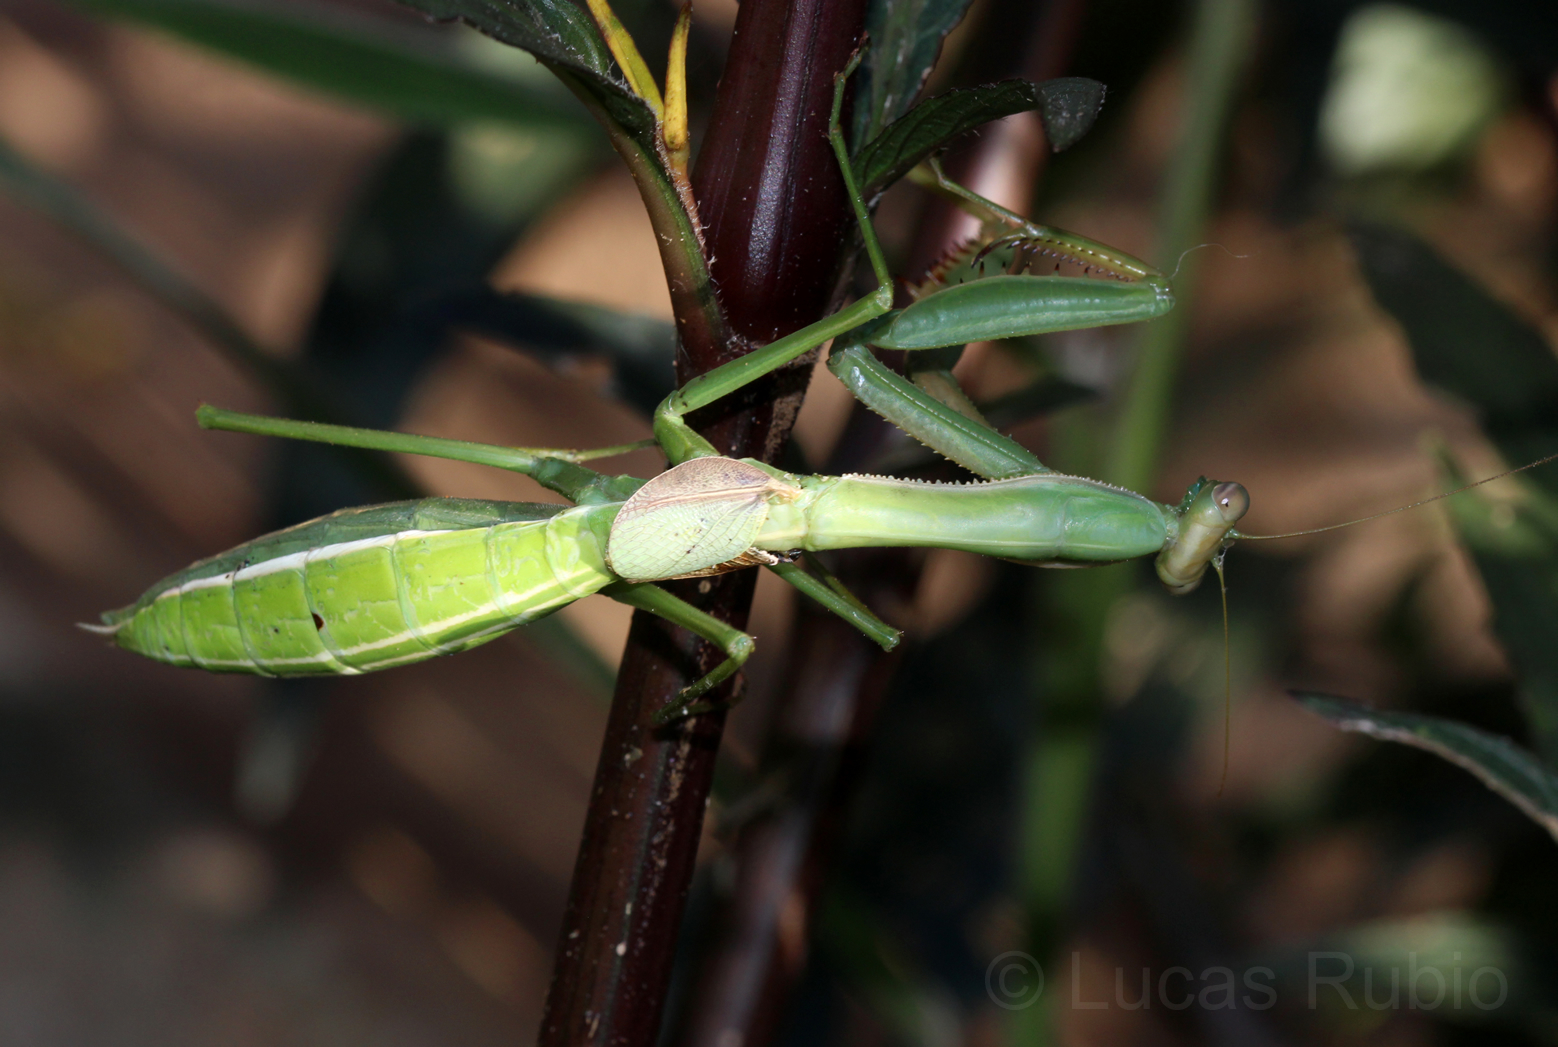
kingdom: Animalia
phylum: Arthropoda
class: Insecta
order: Mantodea
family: Coptopterygidae
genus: Coptopteryx
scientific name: Coptopteryx argentina
